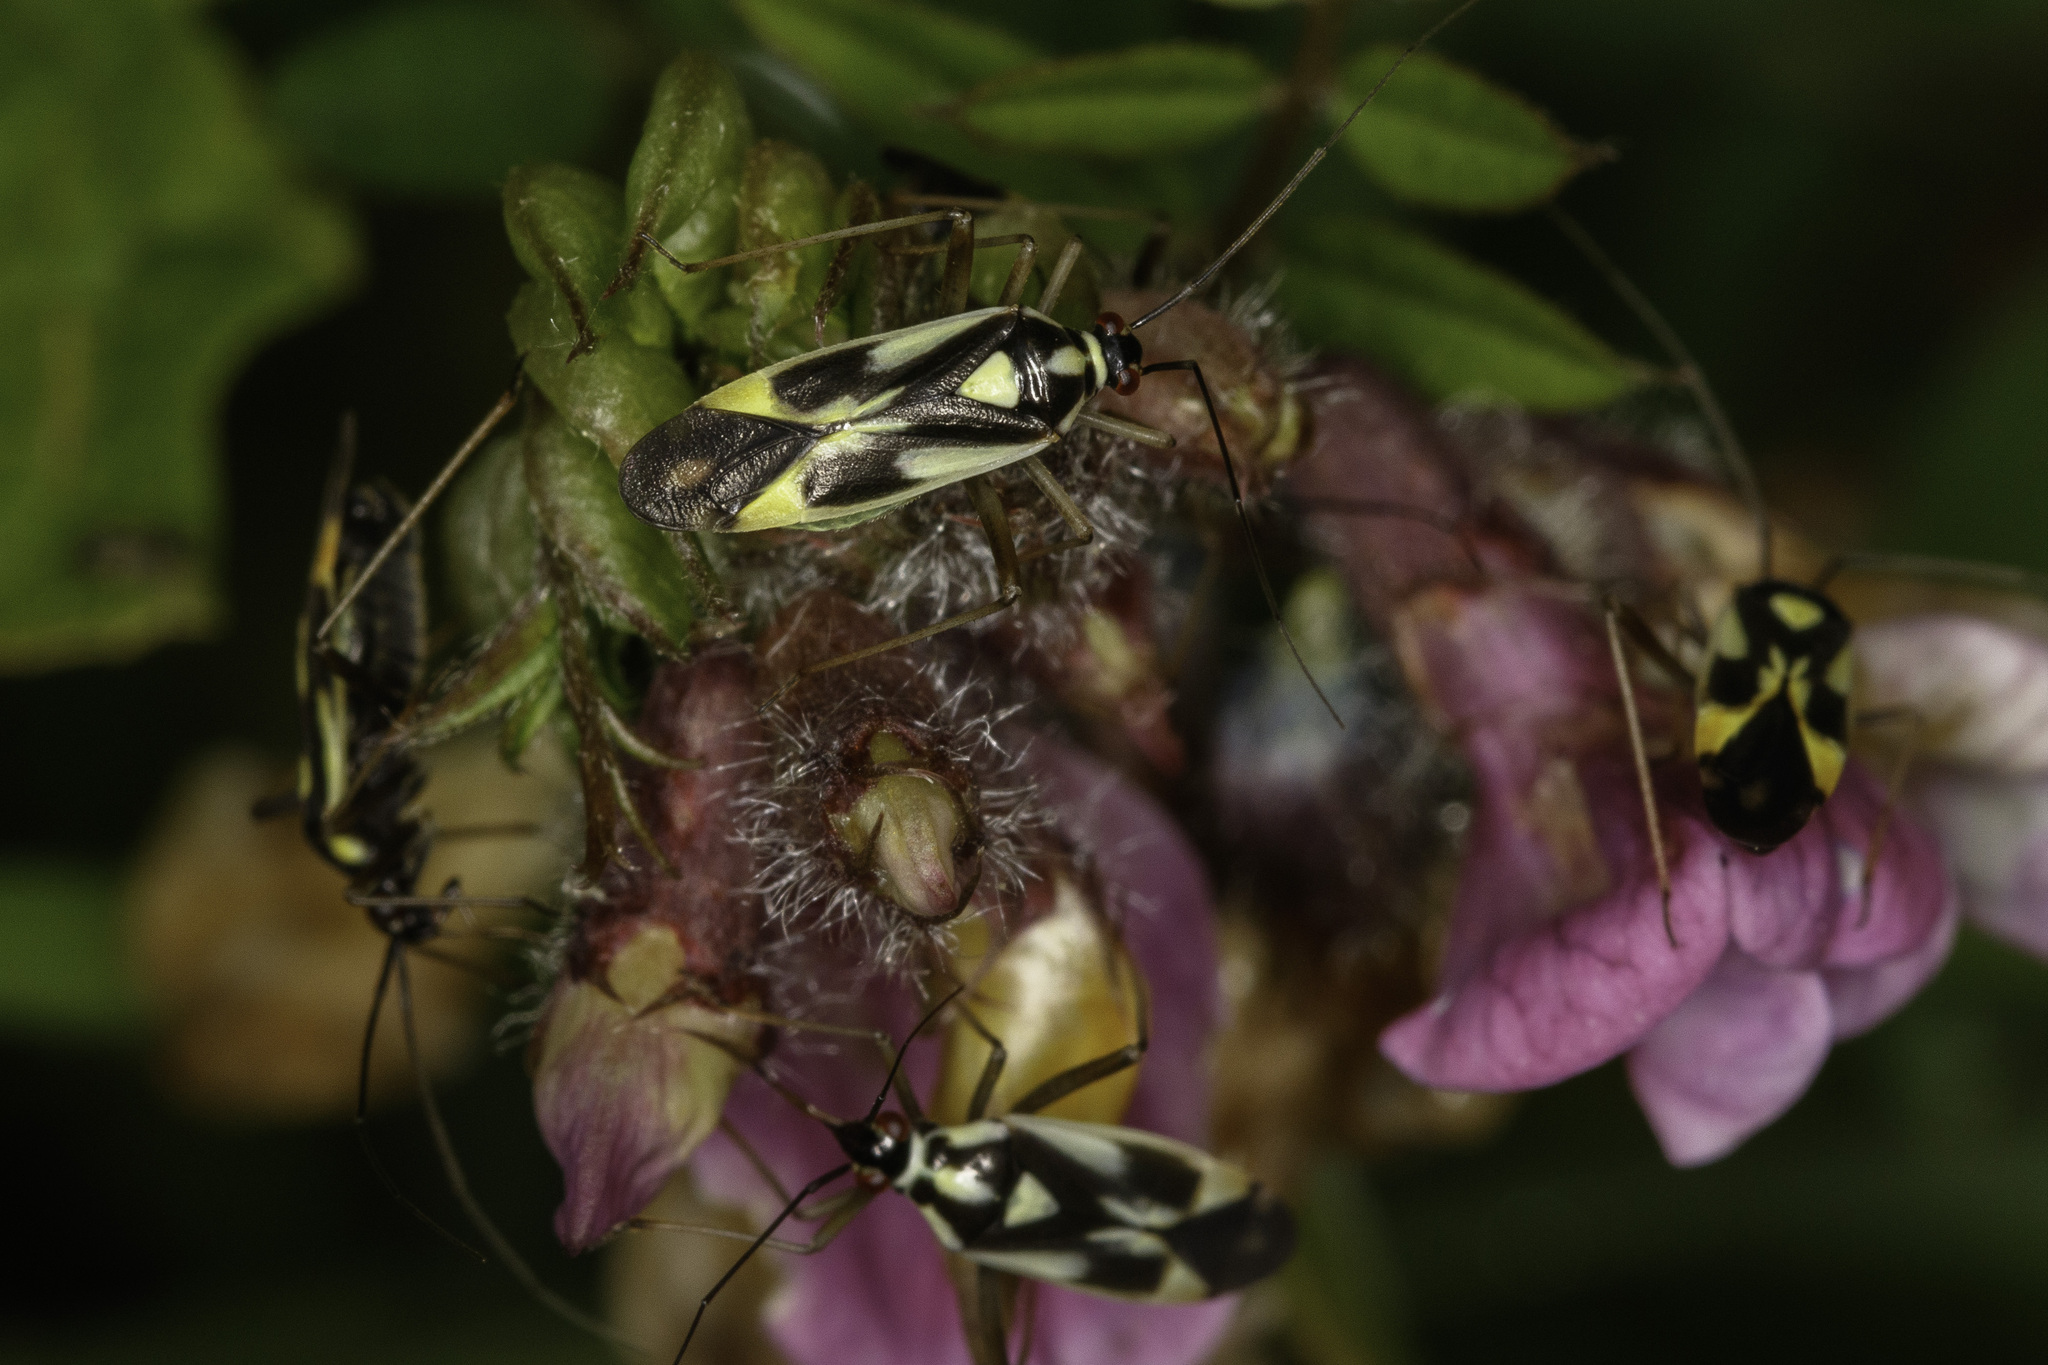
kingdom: Animalia
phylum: Arthropoda
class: Insecta
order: Hemiptera
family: Miridae
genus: Grypocoris
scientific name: Grypocoris stysi
